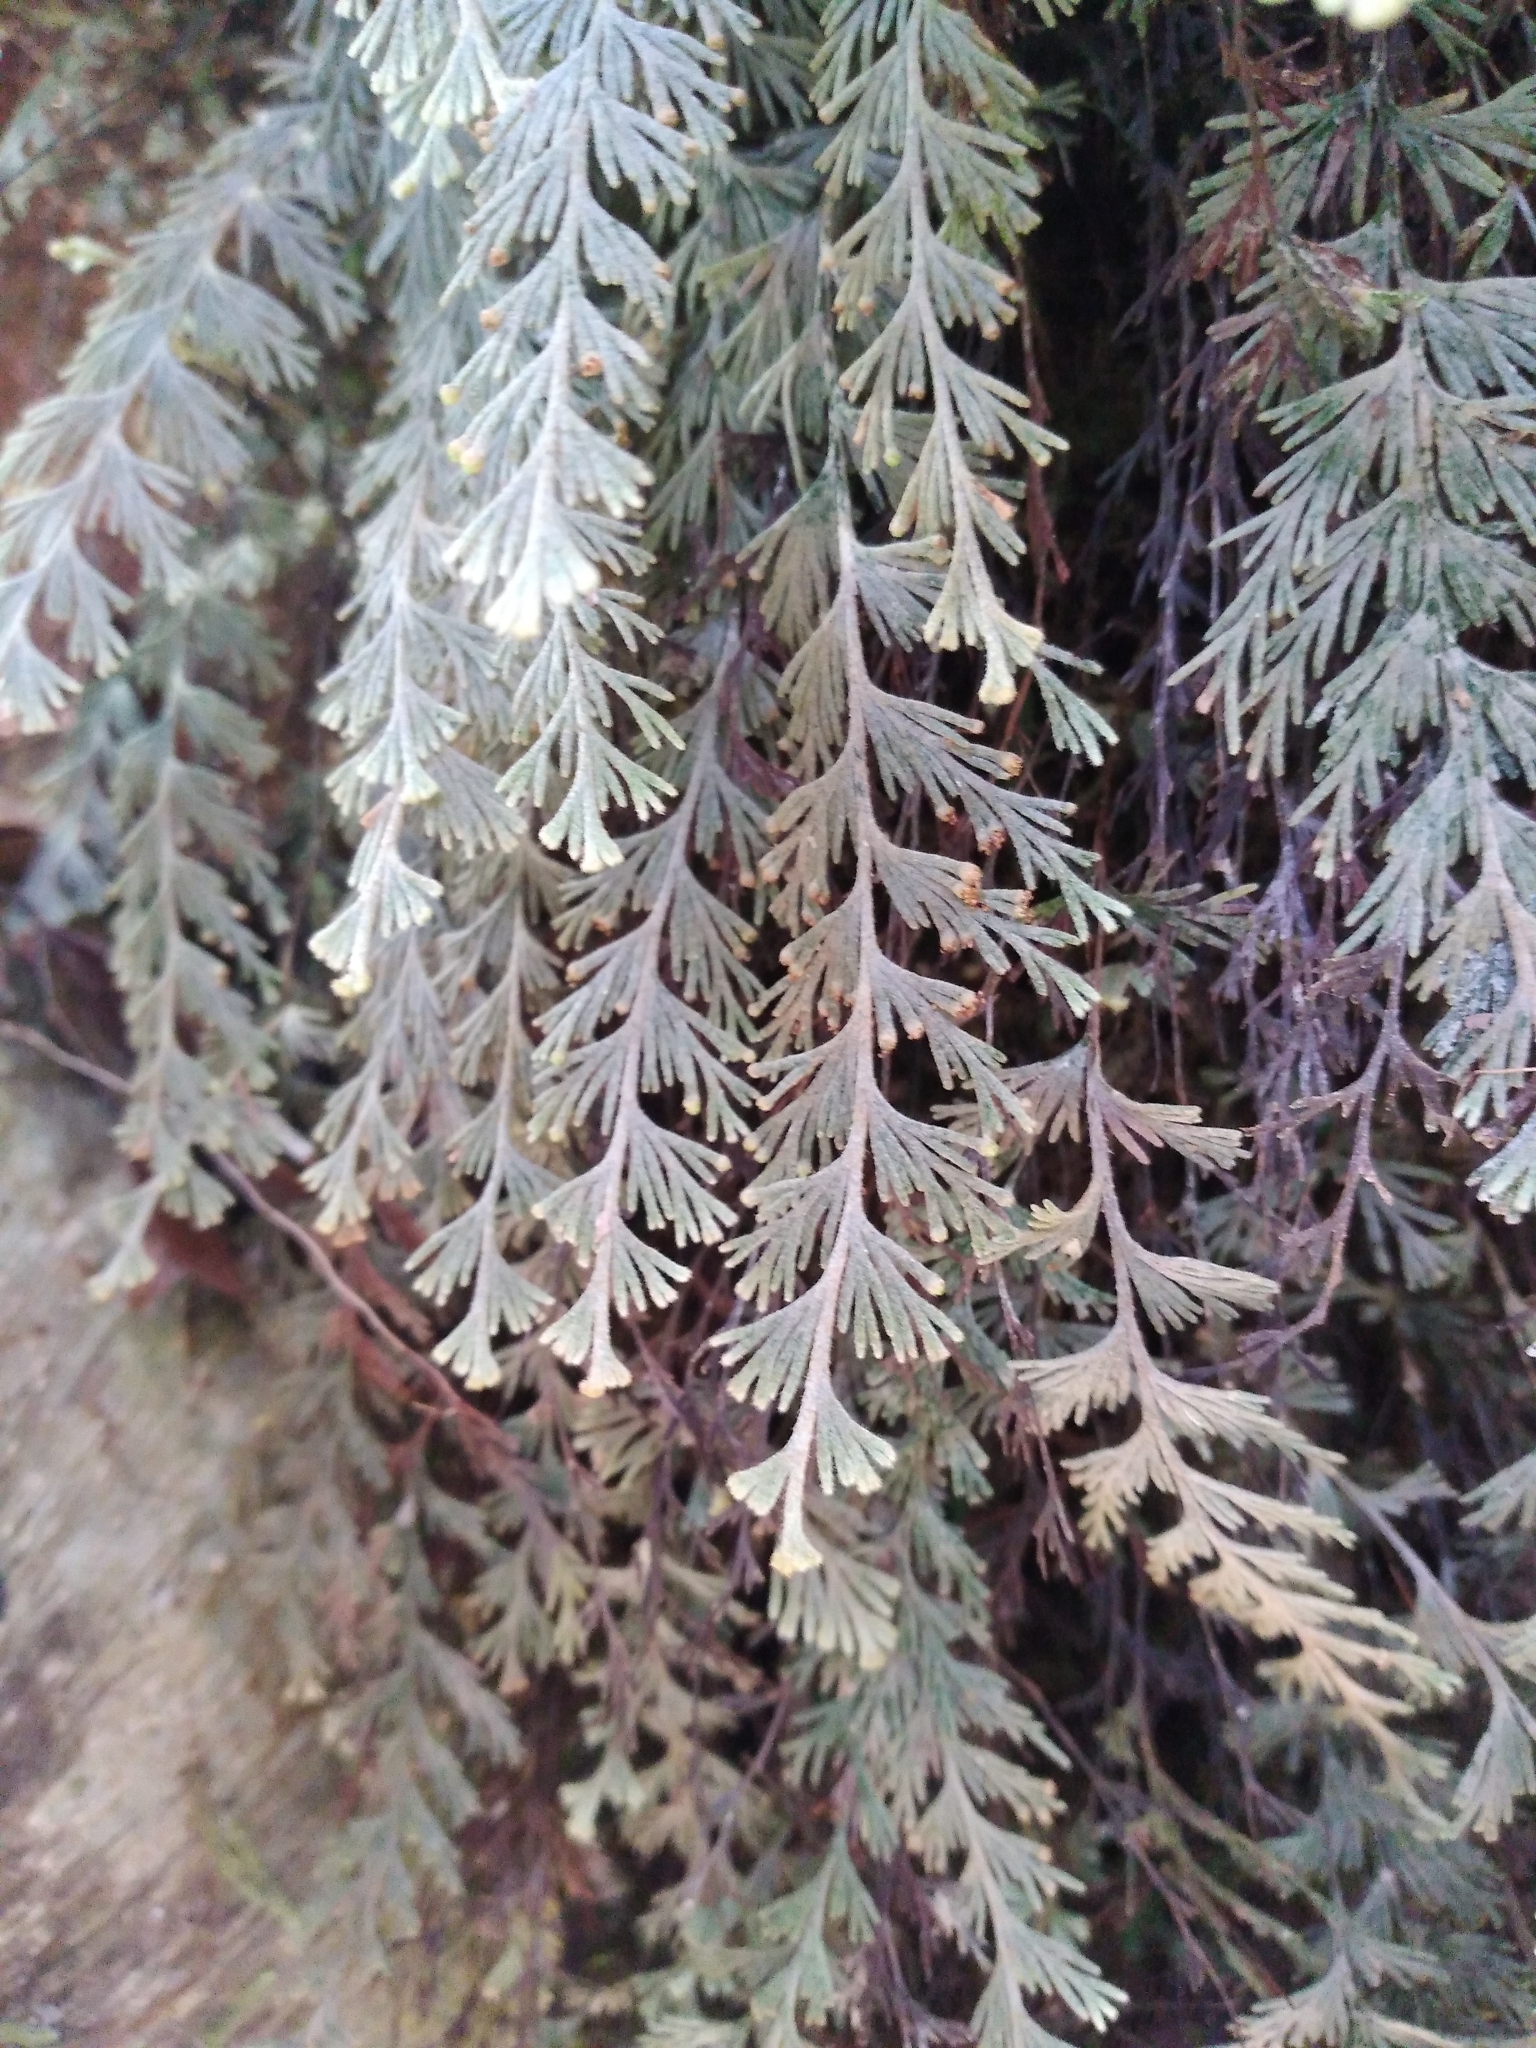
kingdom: Plantae
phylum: Tracheophyta
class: Polypodiopsida
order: Hymenophyllales
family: Hymenophyllaceae
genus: Hymenophyllum
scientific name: Hymenophyllum malingii
